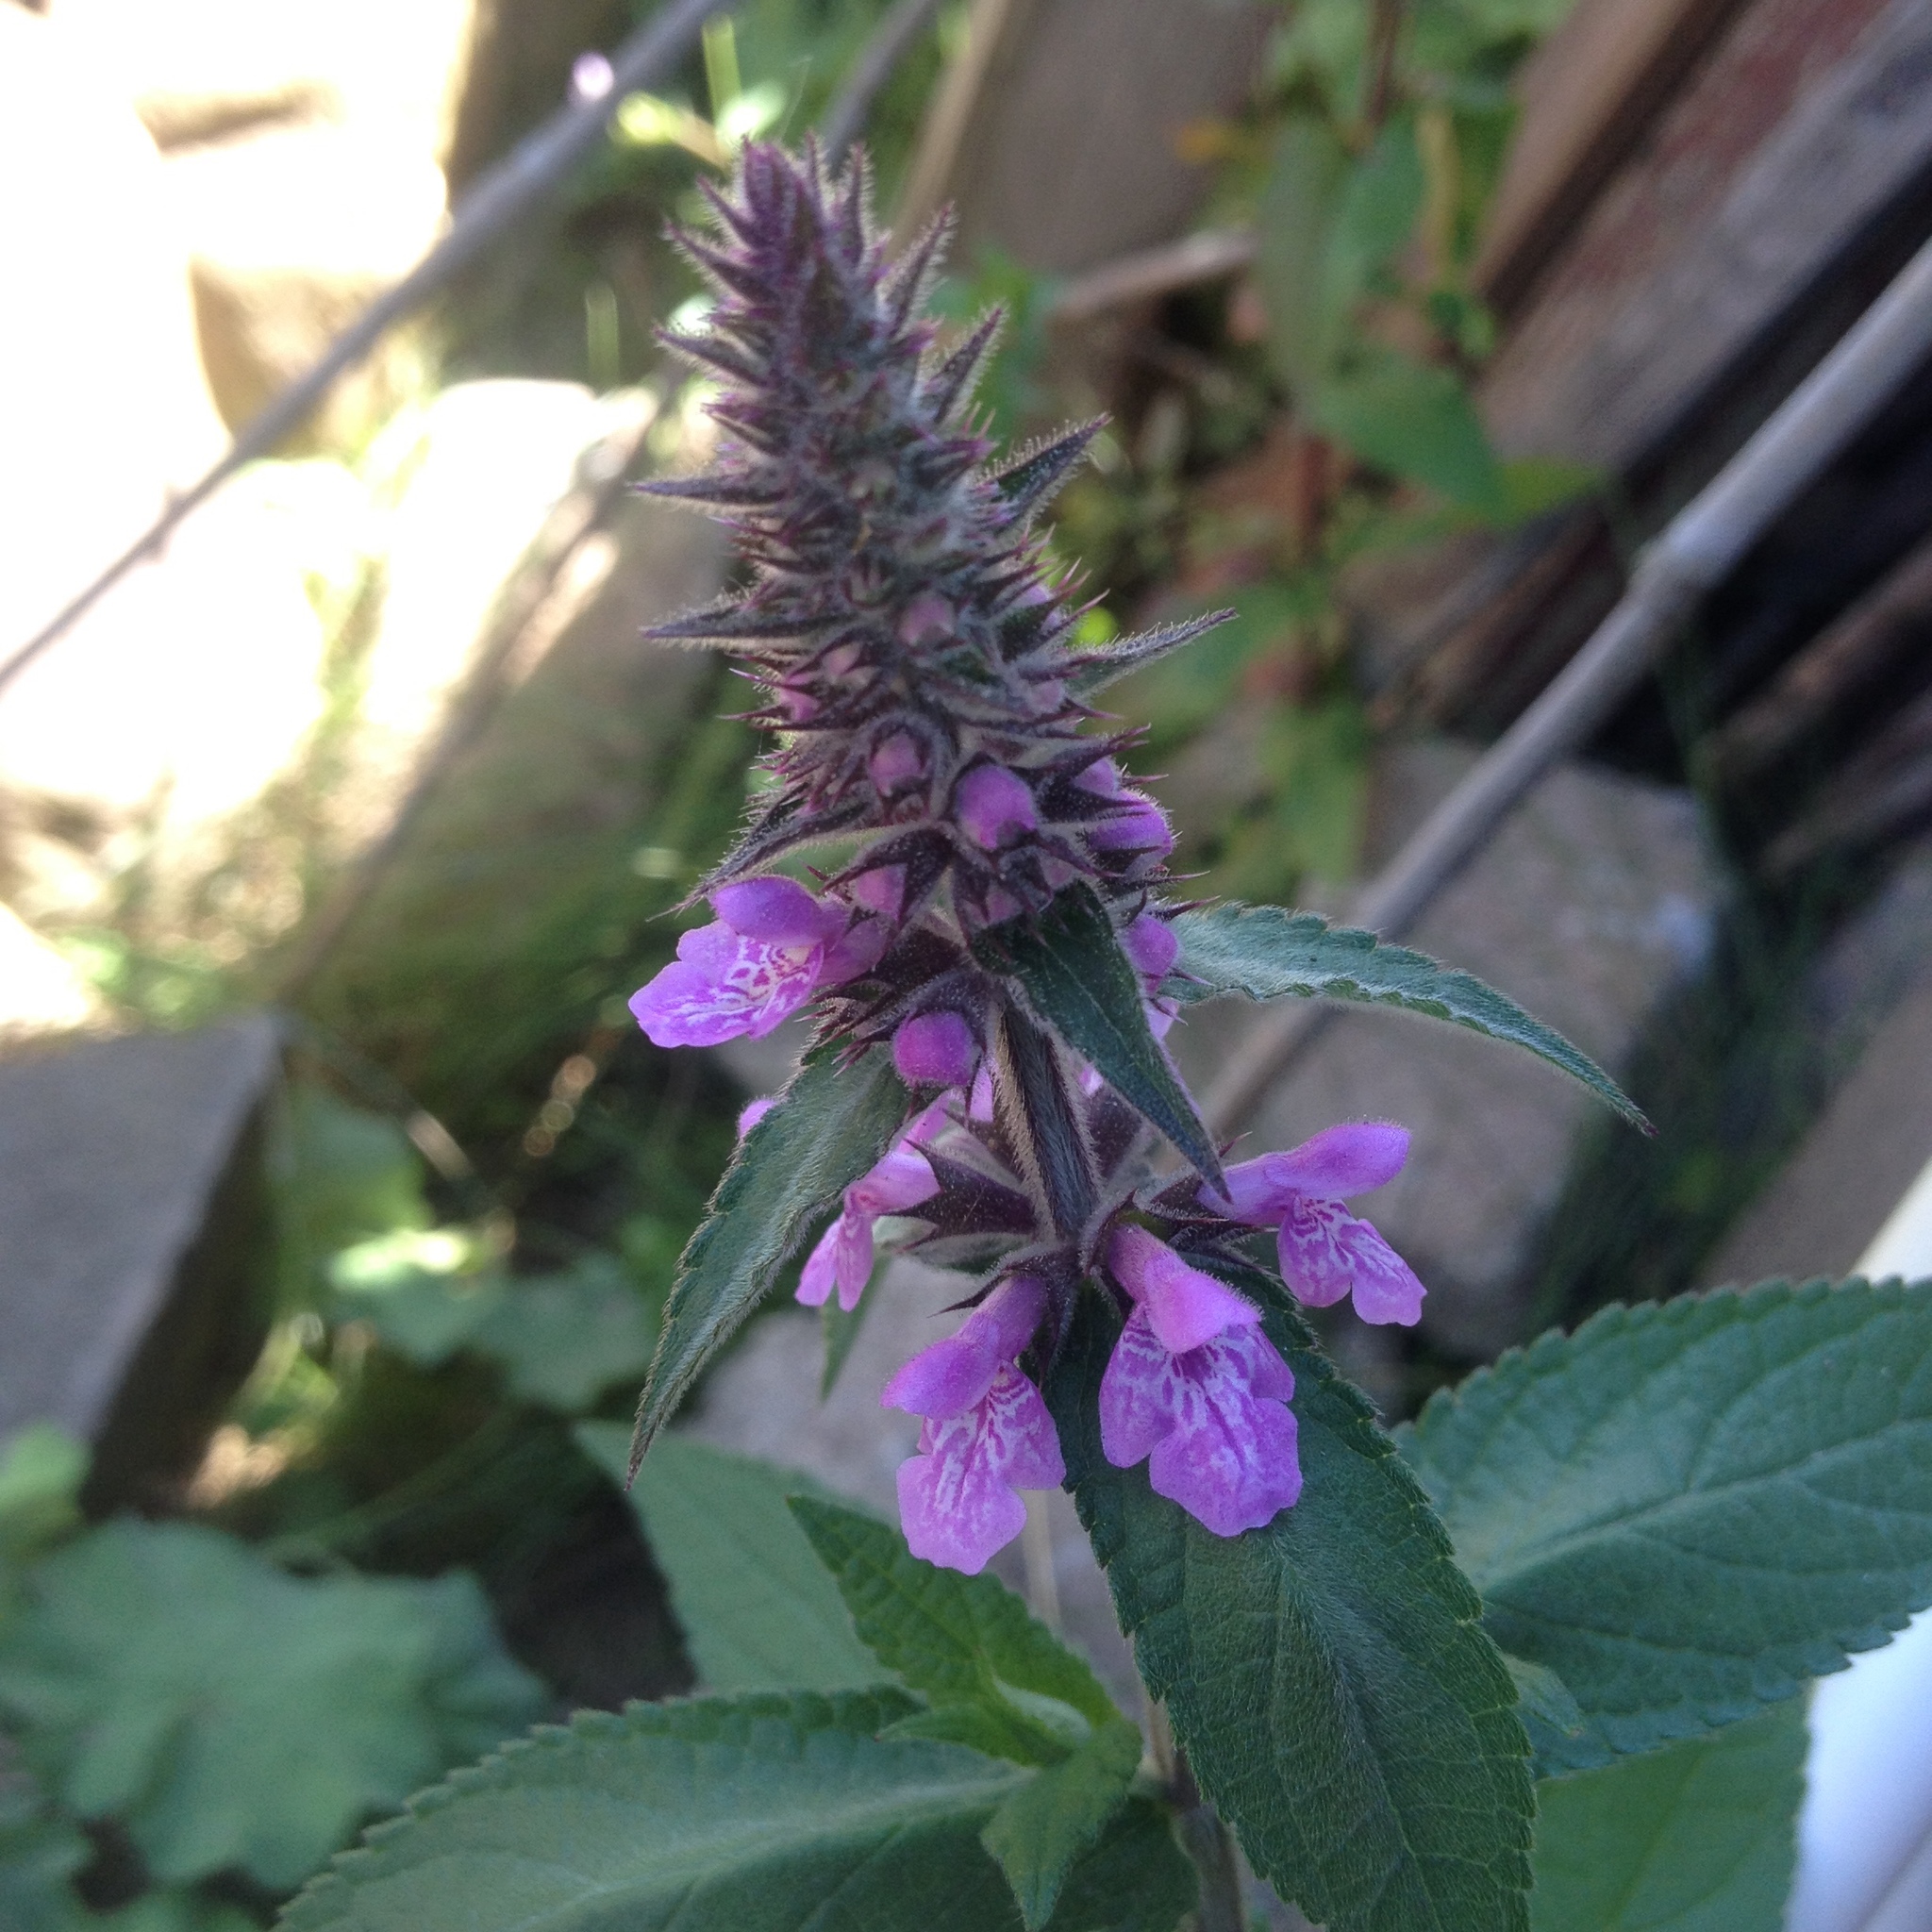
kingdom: Plantae
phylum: Tracheophyta
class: Magnoliopsida
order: Lamiales
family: Lamiaceae
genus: Stachys
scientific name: Stachys palustris
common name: Marsh woundwort
